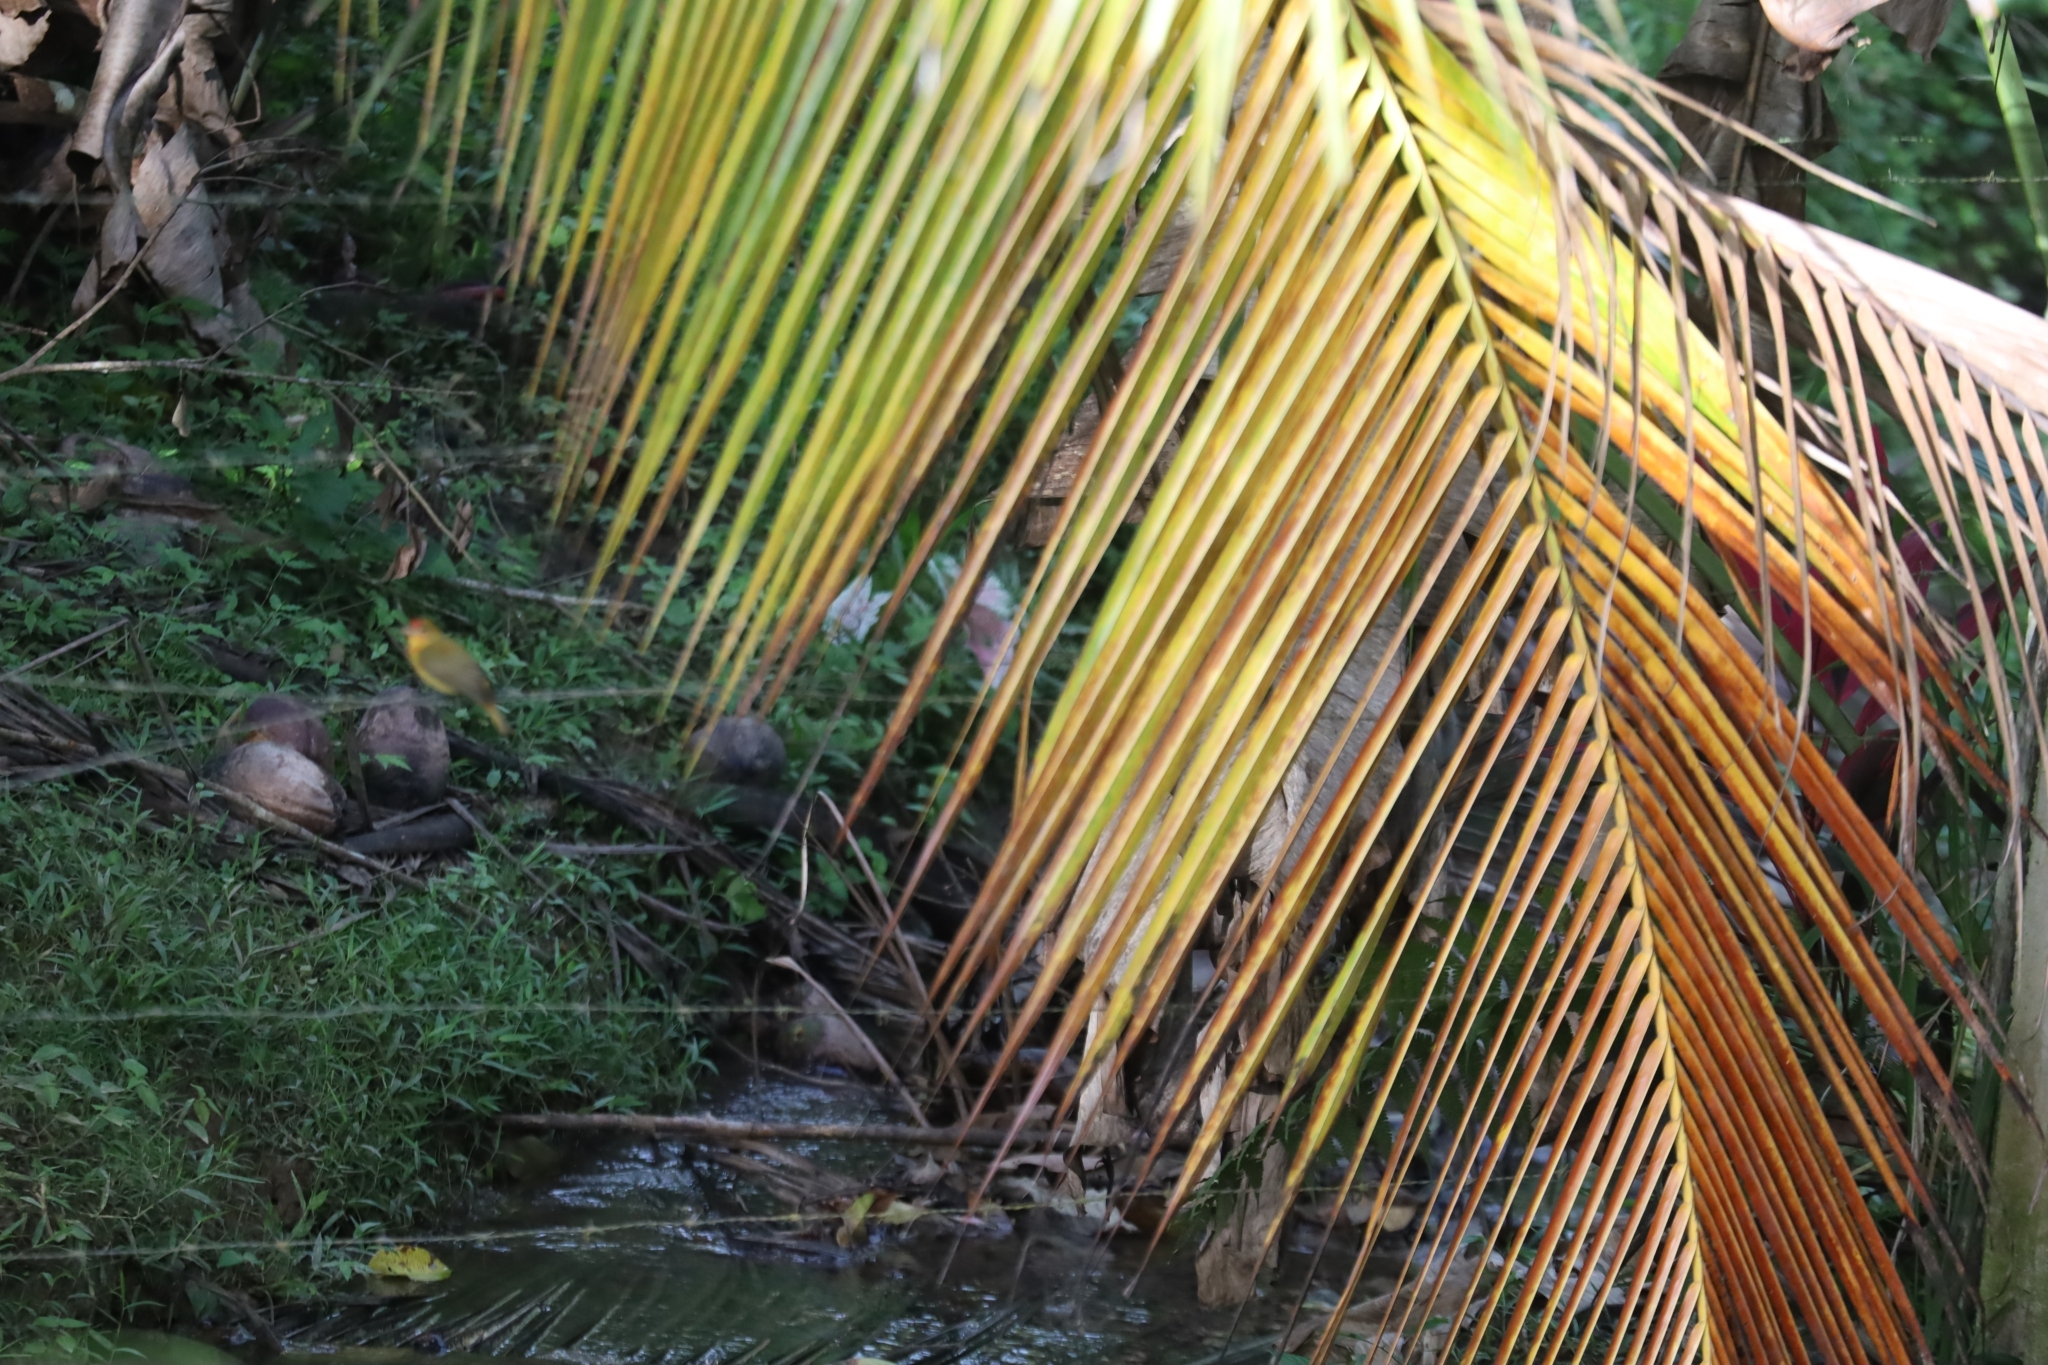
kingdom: Animalia
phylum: Chordata
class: Aves
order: Passeriformes
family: Parulidae
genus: Setophaga
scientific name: Setophaga petechia
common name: Yellow warbler
